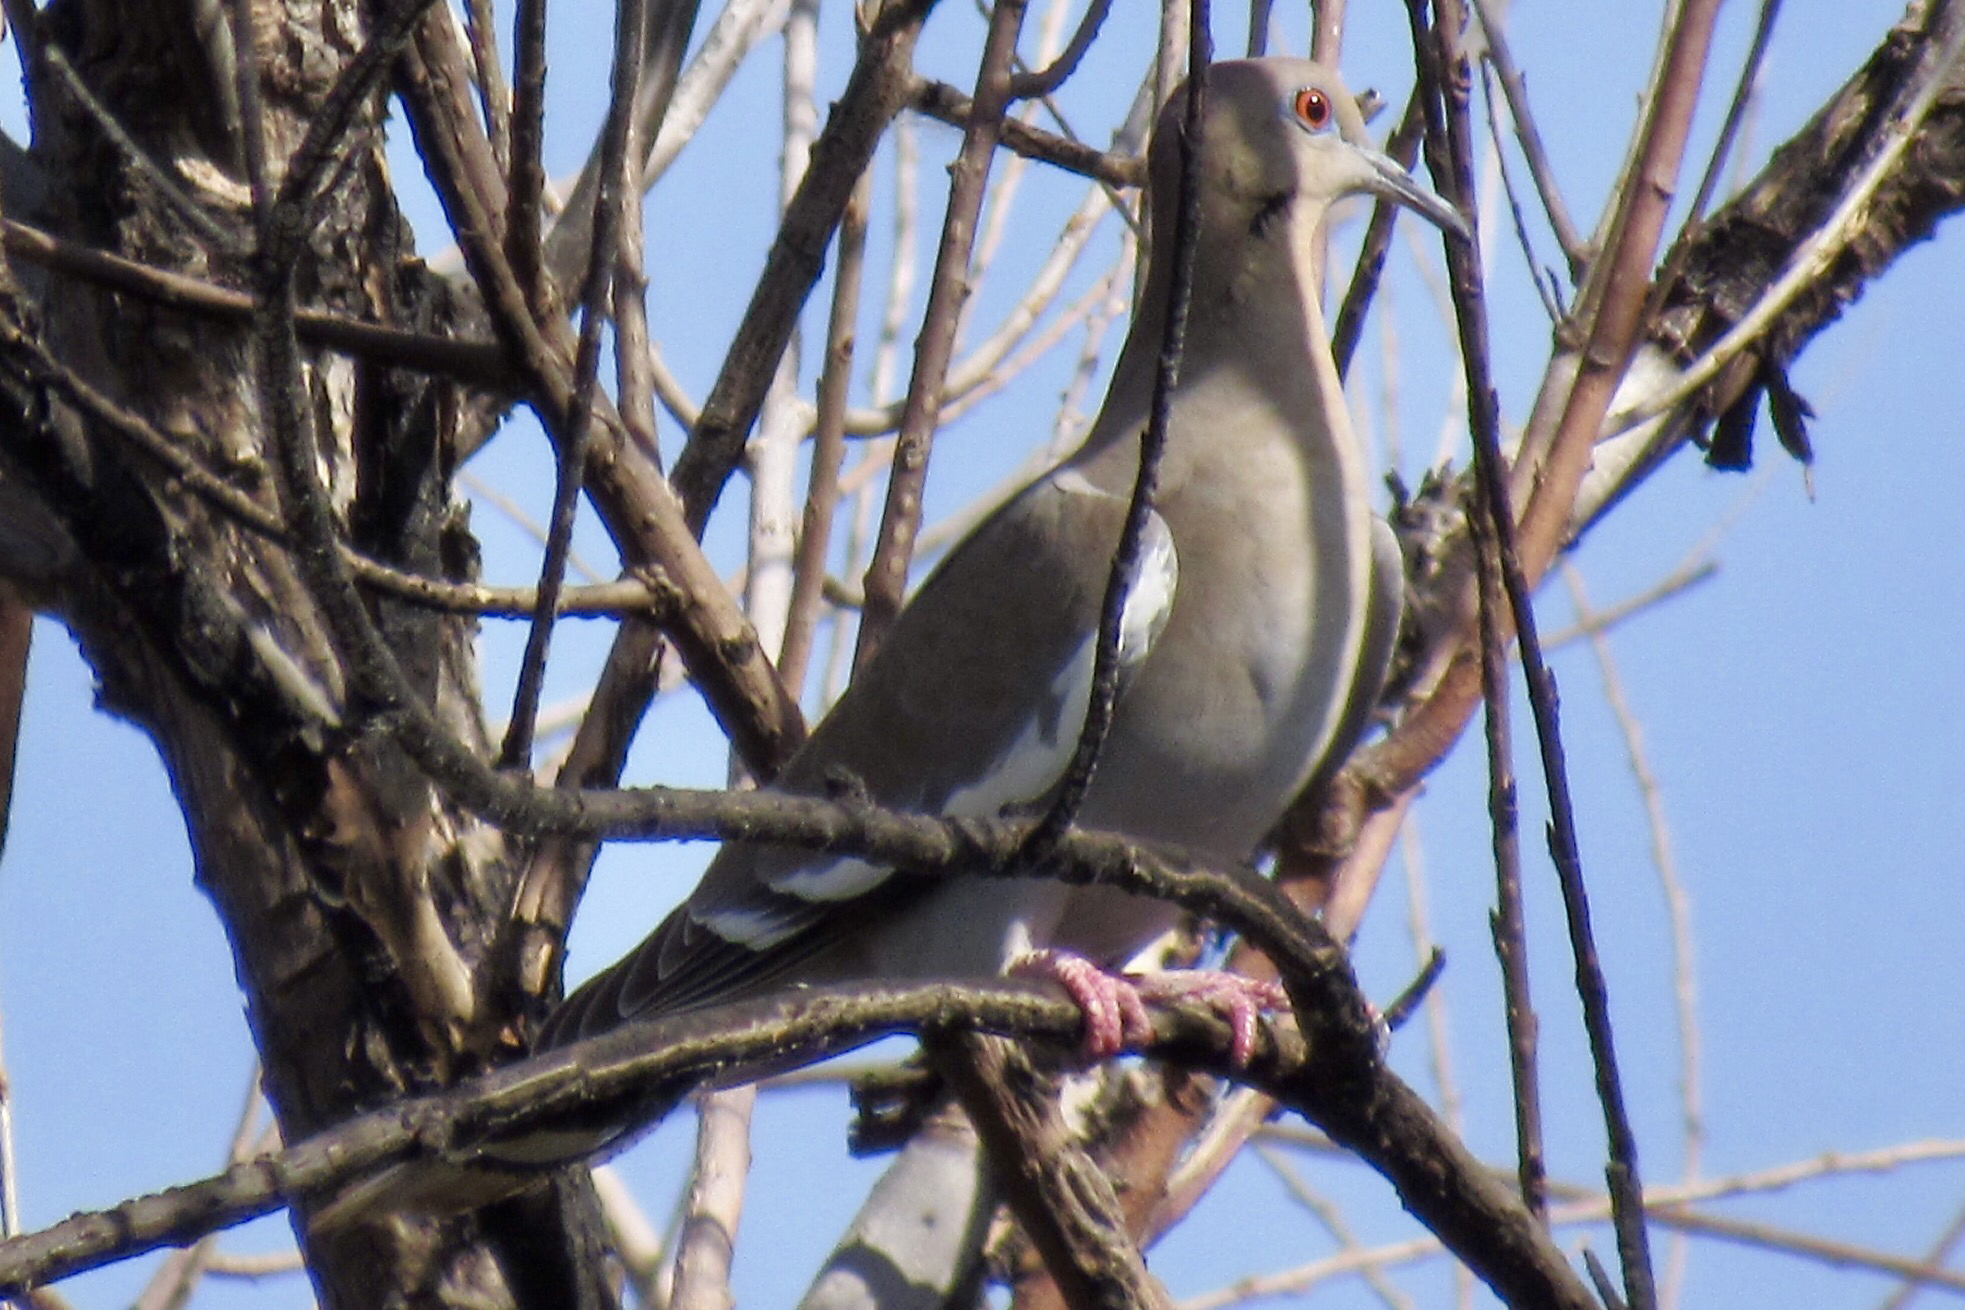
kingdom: Animalia
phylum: Chordata
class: Aves
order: Columbiformes
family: Columbidae
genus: Zenaida
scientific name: Zenaida asiatica
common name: White-winged dove
